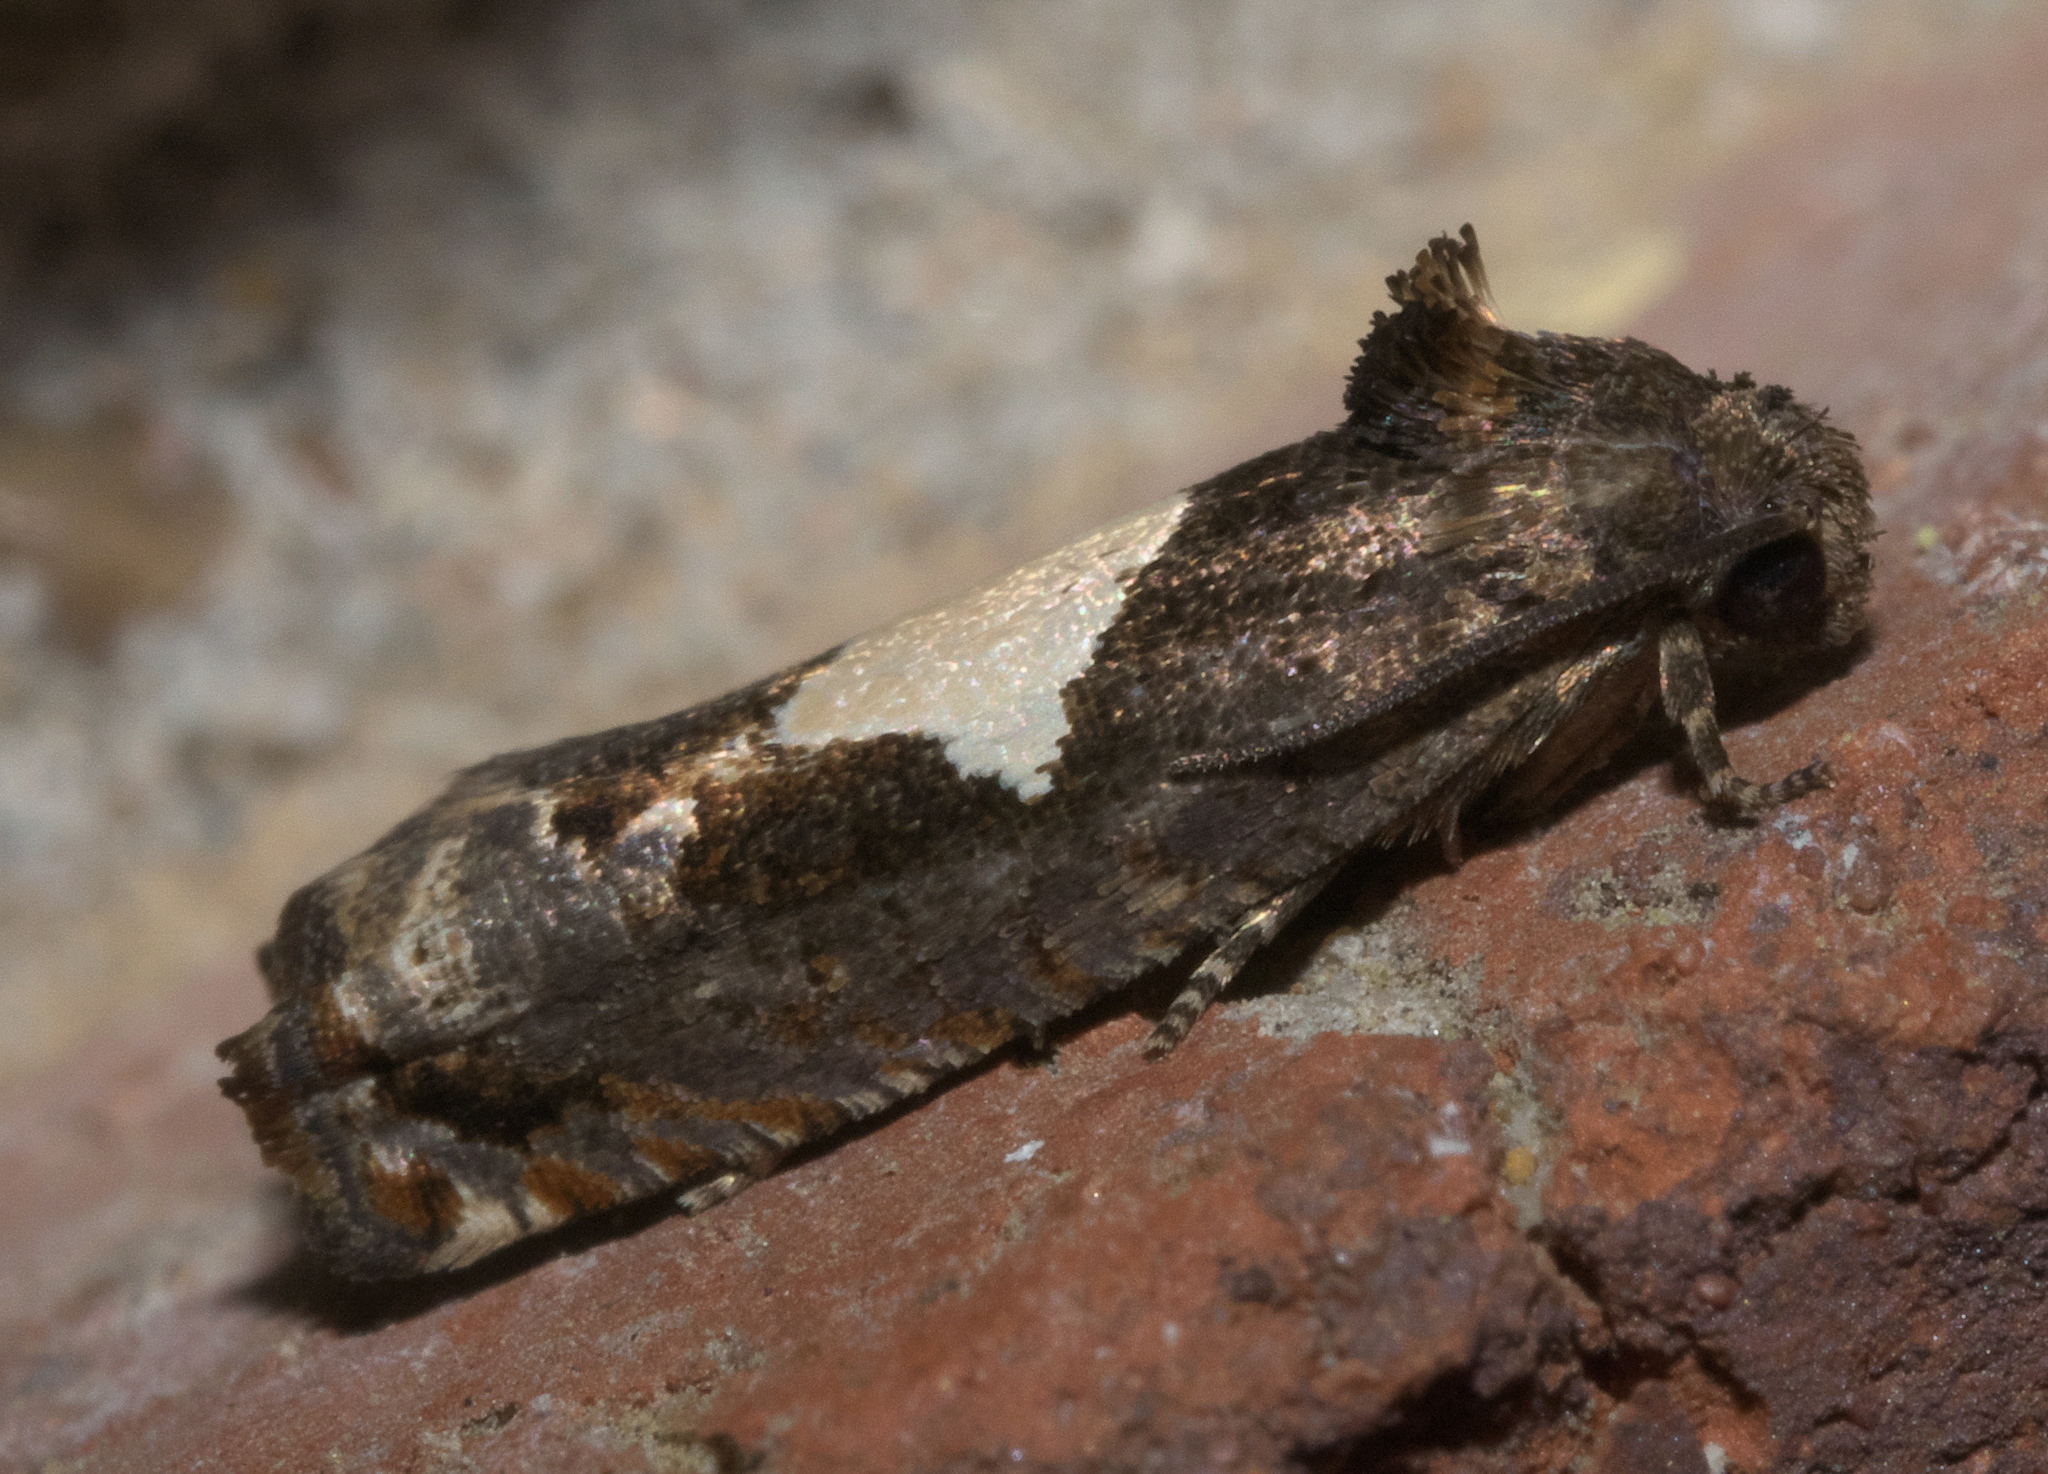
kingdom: Animalia
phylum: Arthropoda
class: Insecta
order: Lepidoptera
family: Tortricidae
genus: Epiblema
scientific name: Epiblema otiosana
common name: Bidens borer moth
